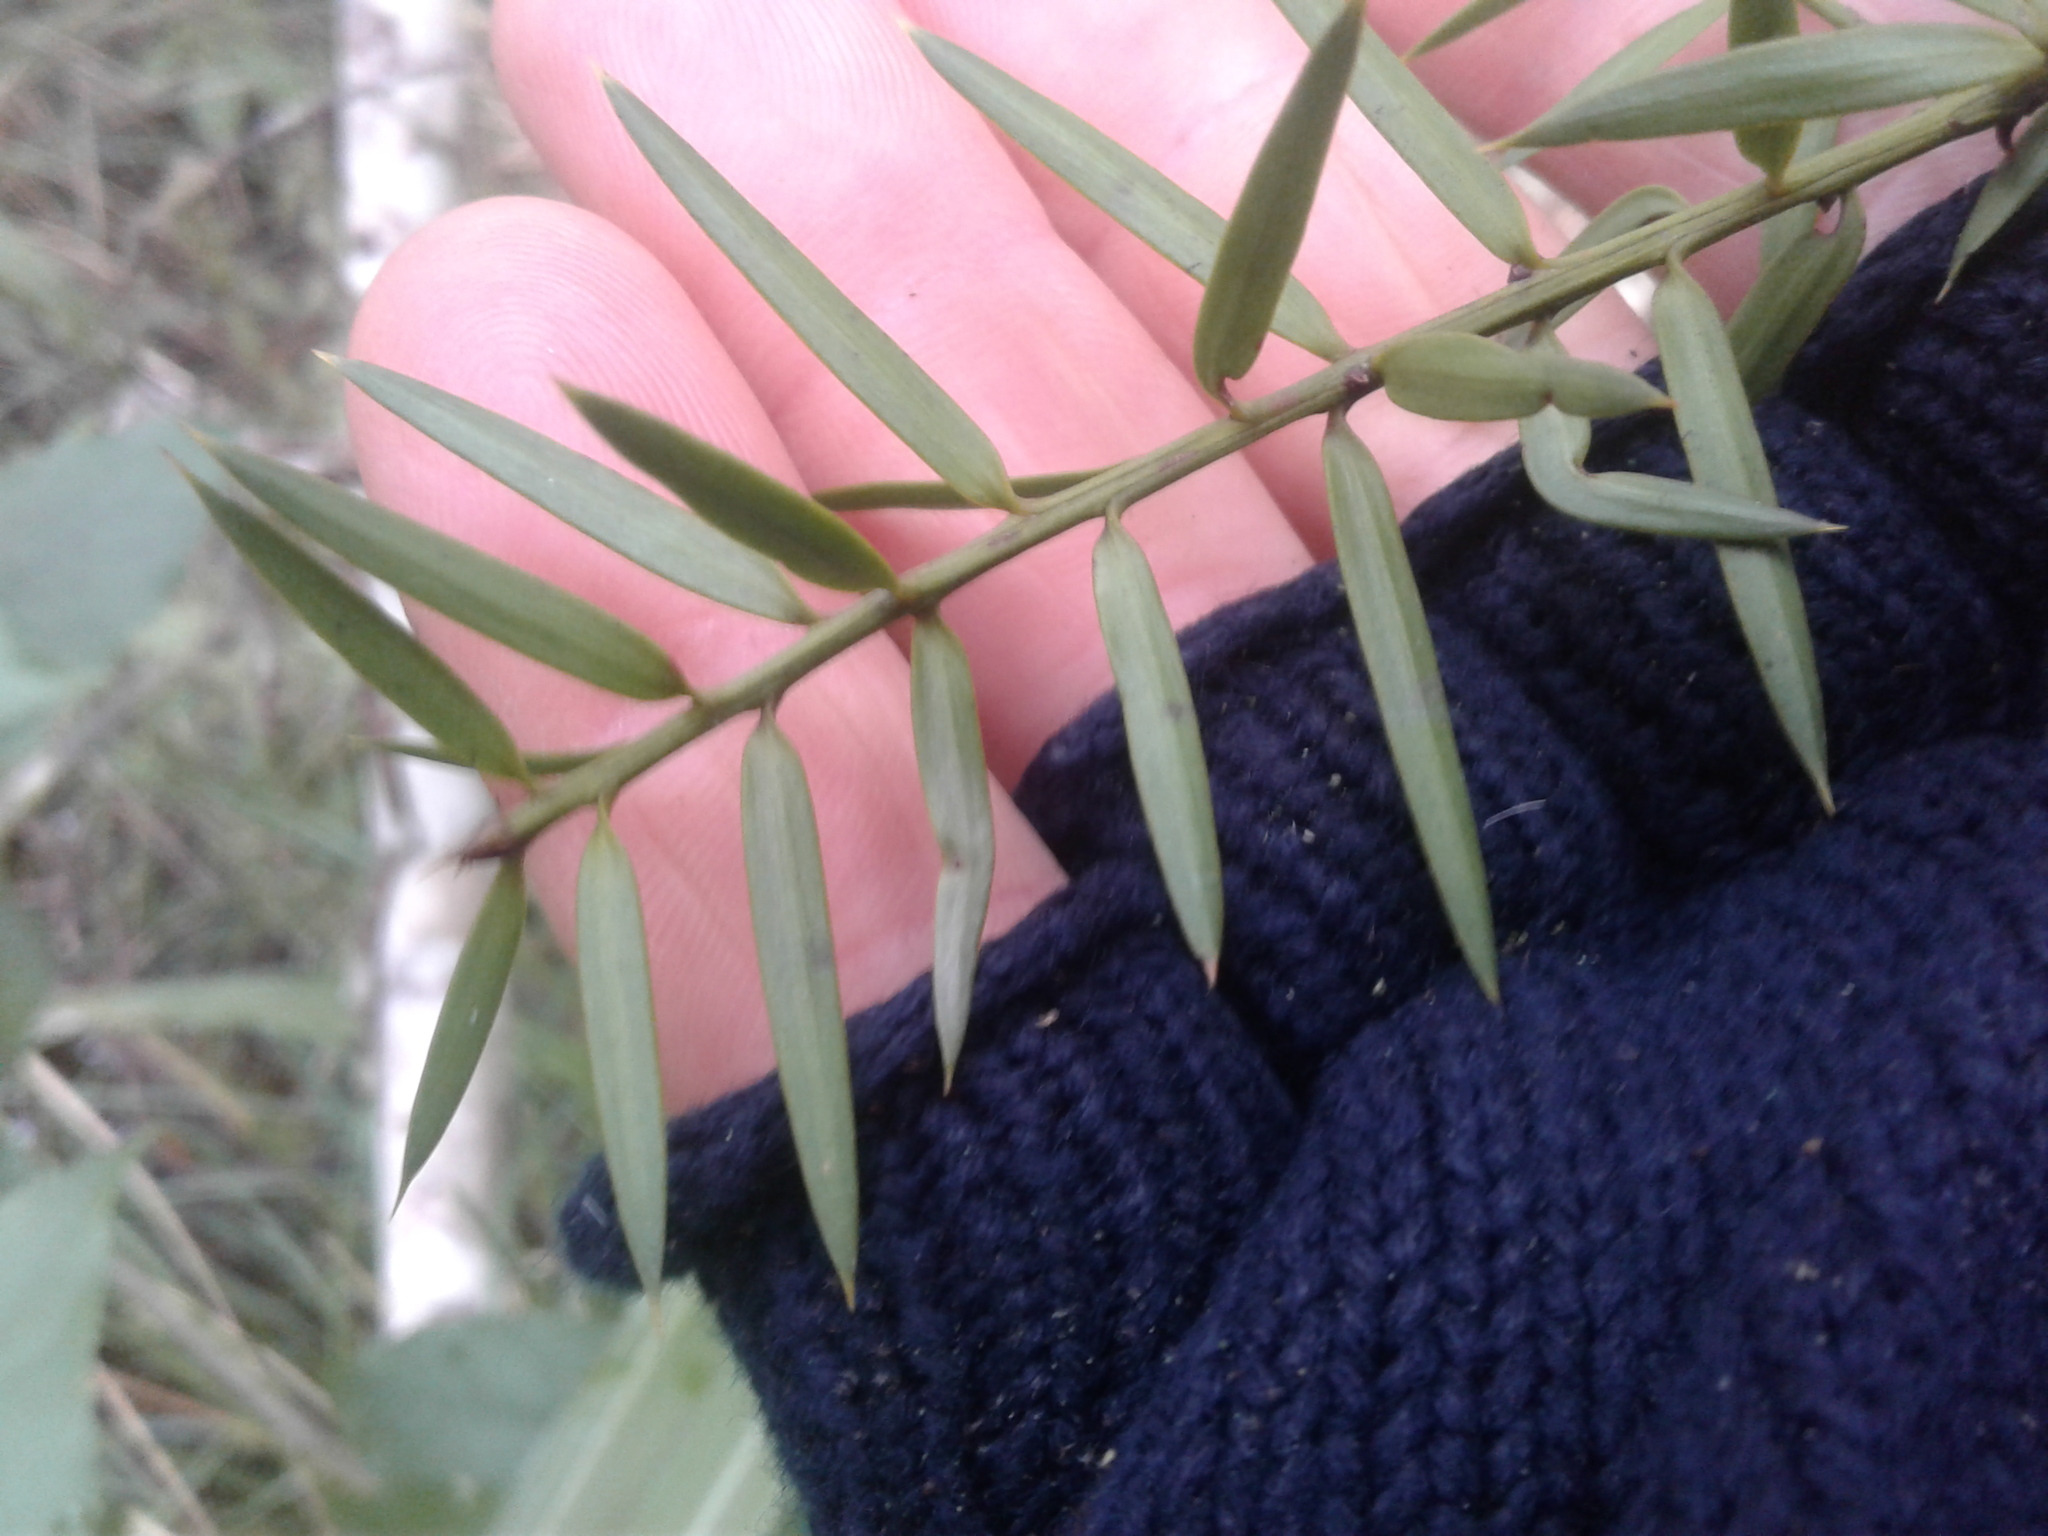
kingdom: Plantae
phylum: Tracheophyta
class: Pinopsida
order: Pinales
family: Podocarpaceae
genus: Podocarpus
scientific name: Podocarpus totara
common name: Totara
